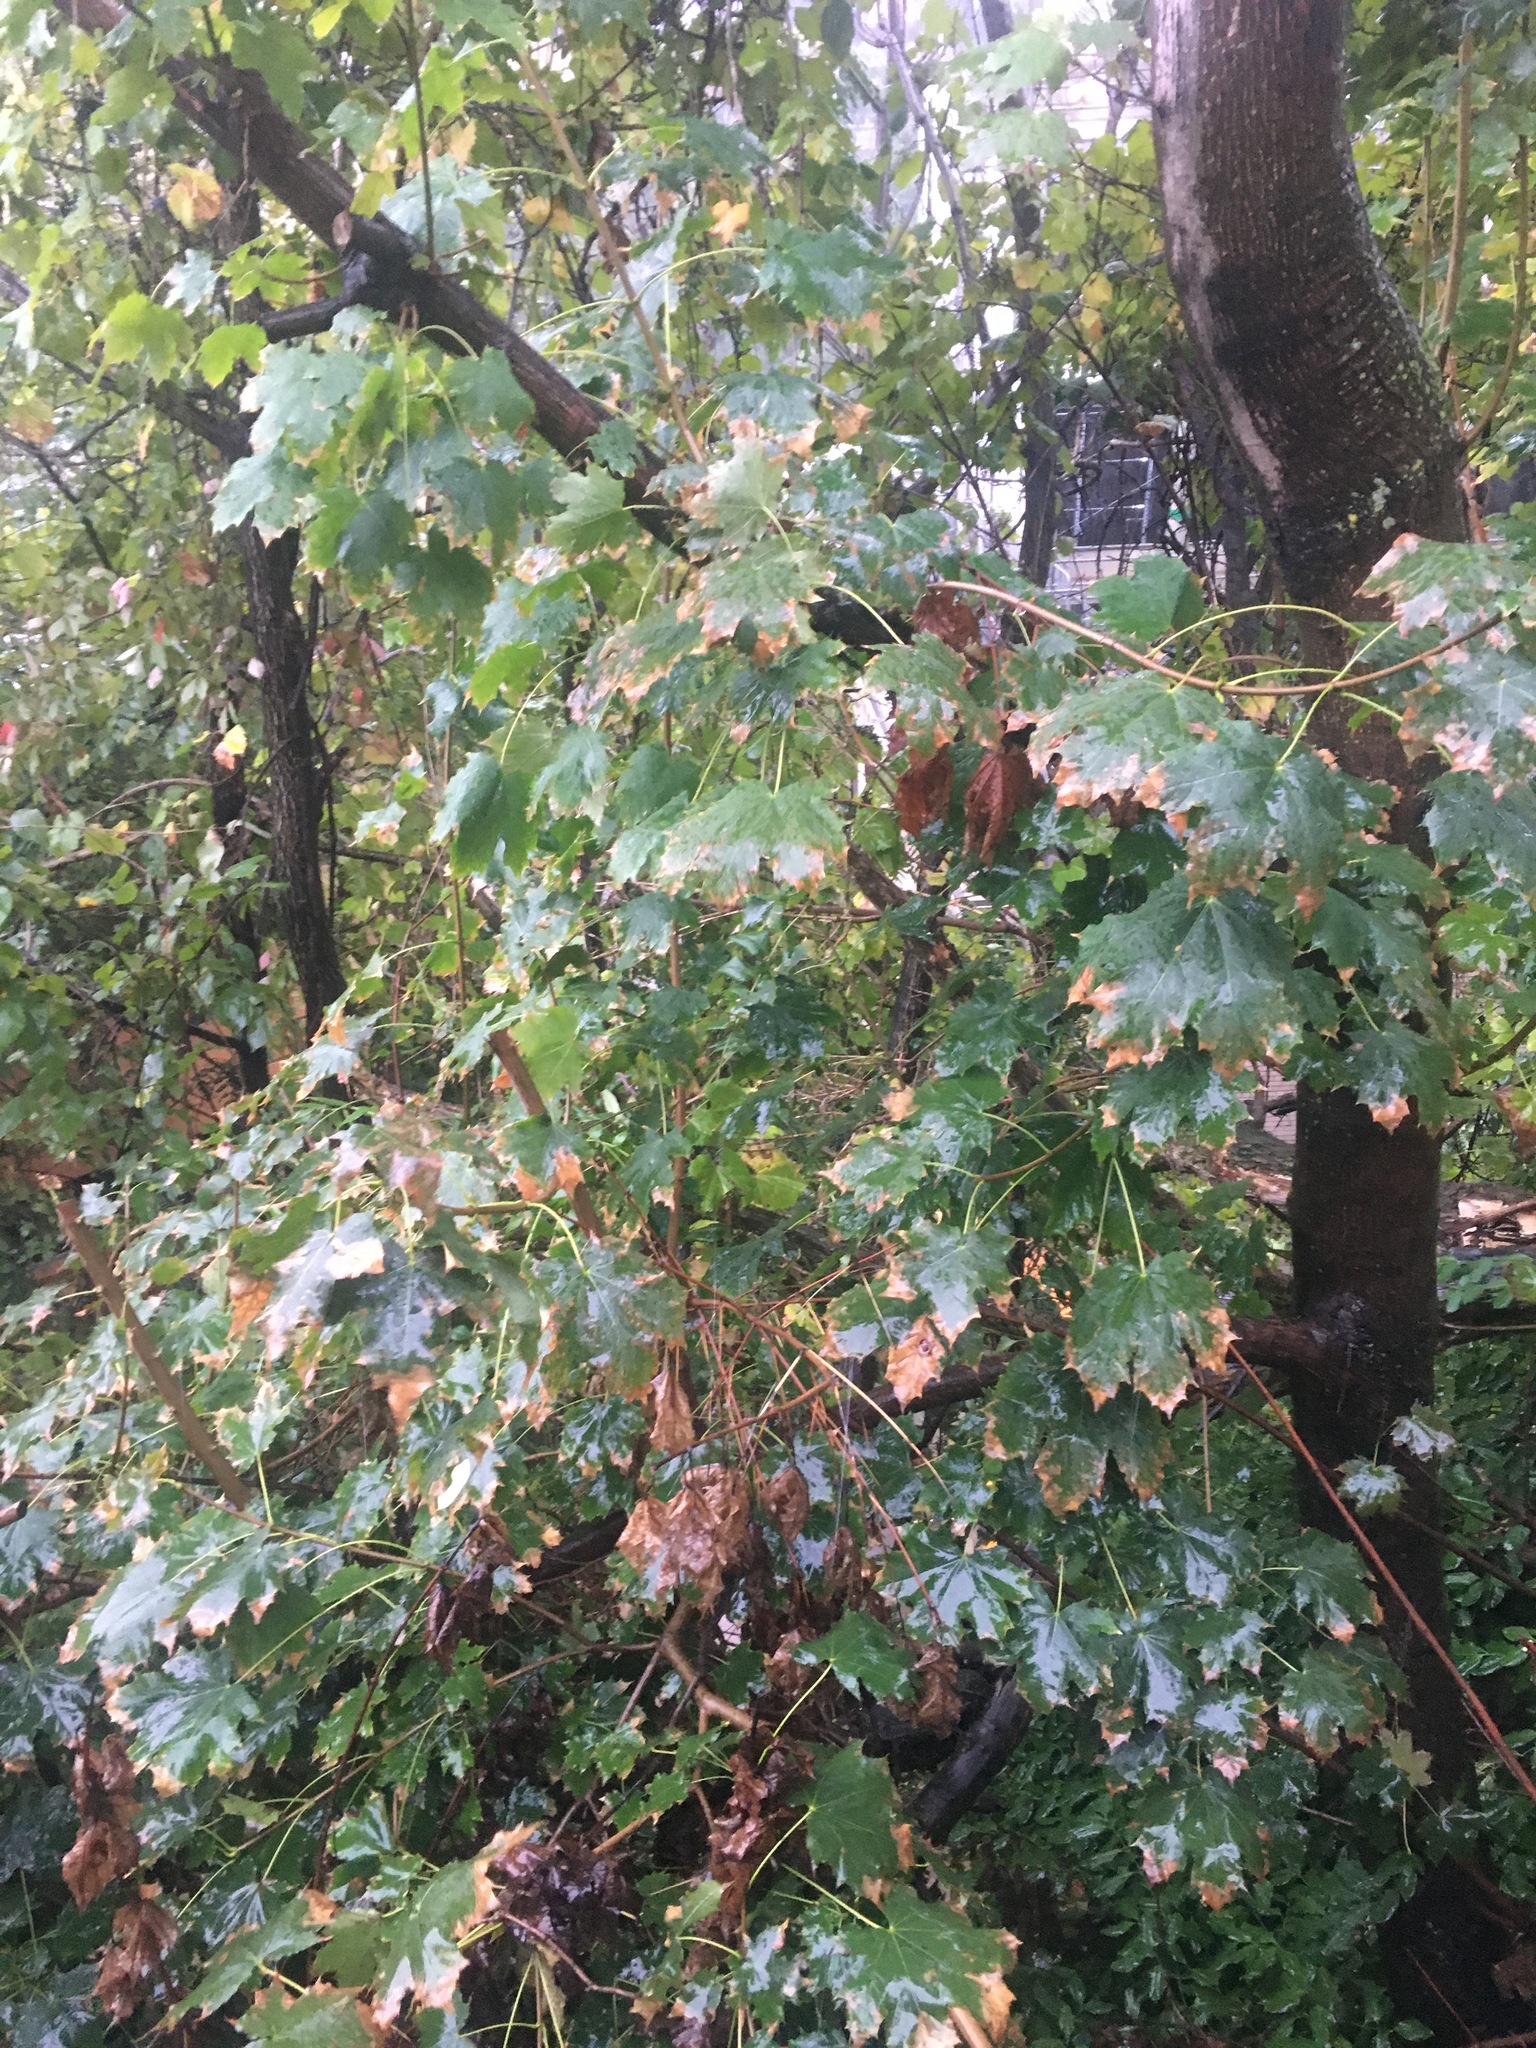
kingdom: Plantae
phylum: Tracheophyta
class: Magnoliopsida
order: Sapindales
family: Sapindaceae
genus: Acer
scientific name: Acer platanoides
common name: Norway maple
